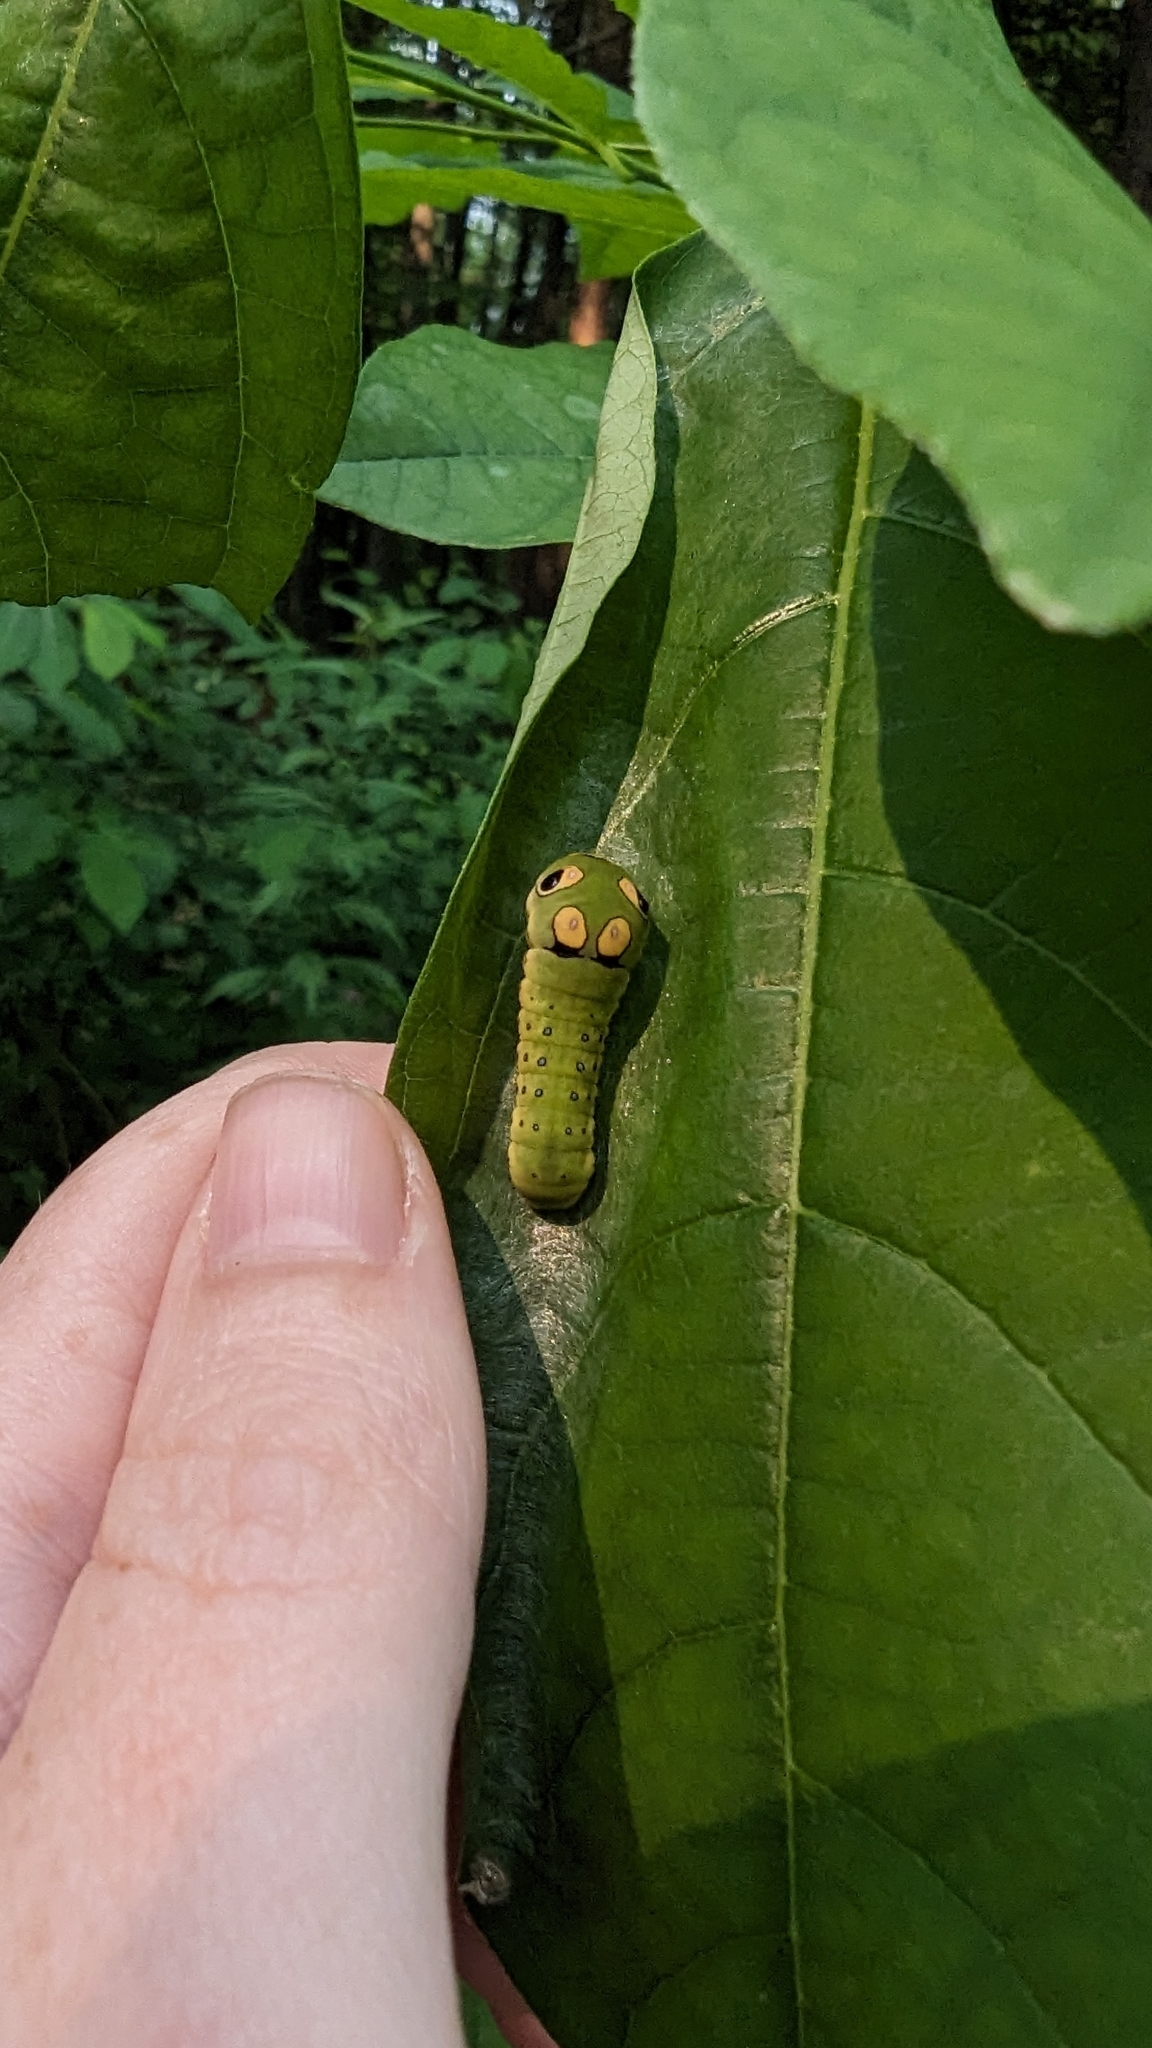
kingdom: Animalia
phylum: Arthropoda
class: Insecta
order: Lepidoptera
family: Papilionidae
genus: Papilio
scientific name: Papilio troilus
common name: Spicebush swallowtail
